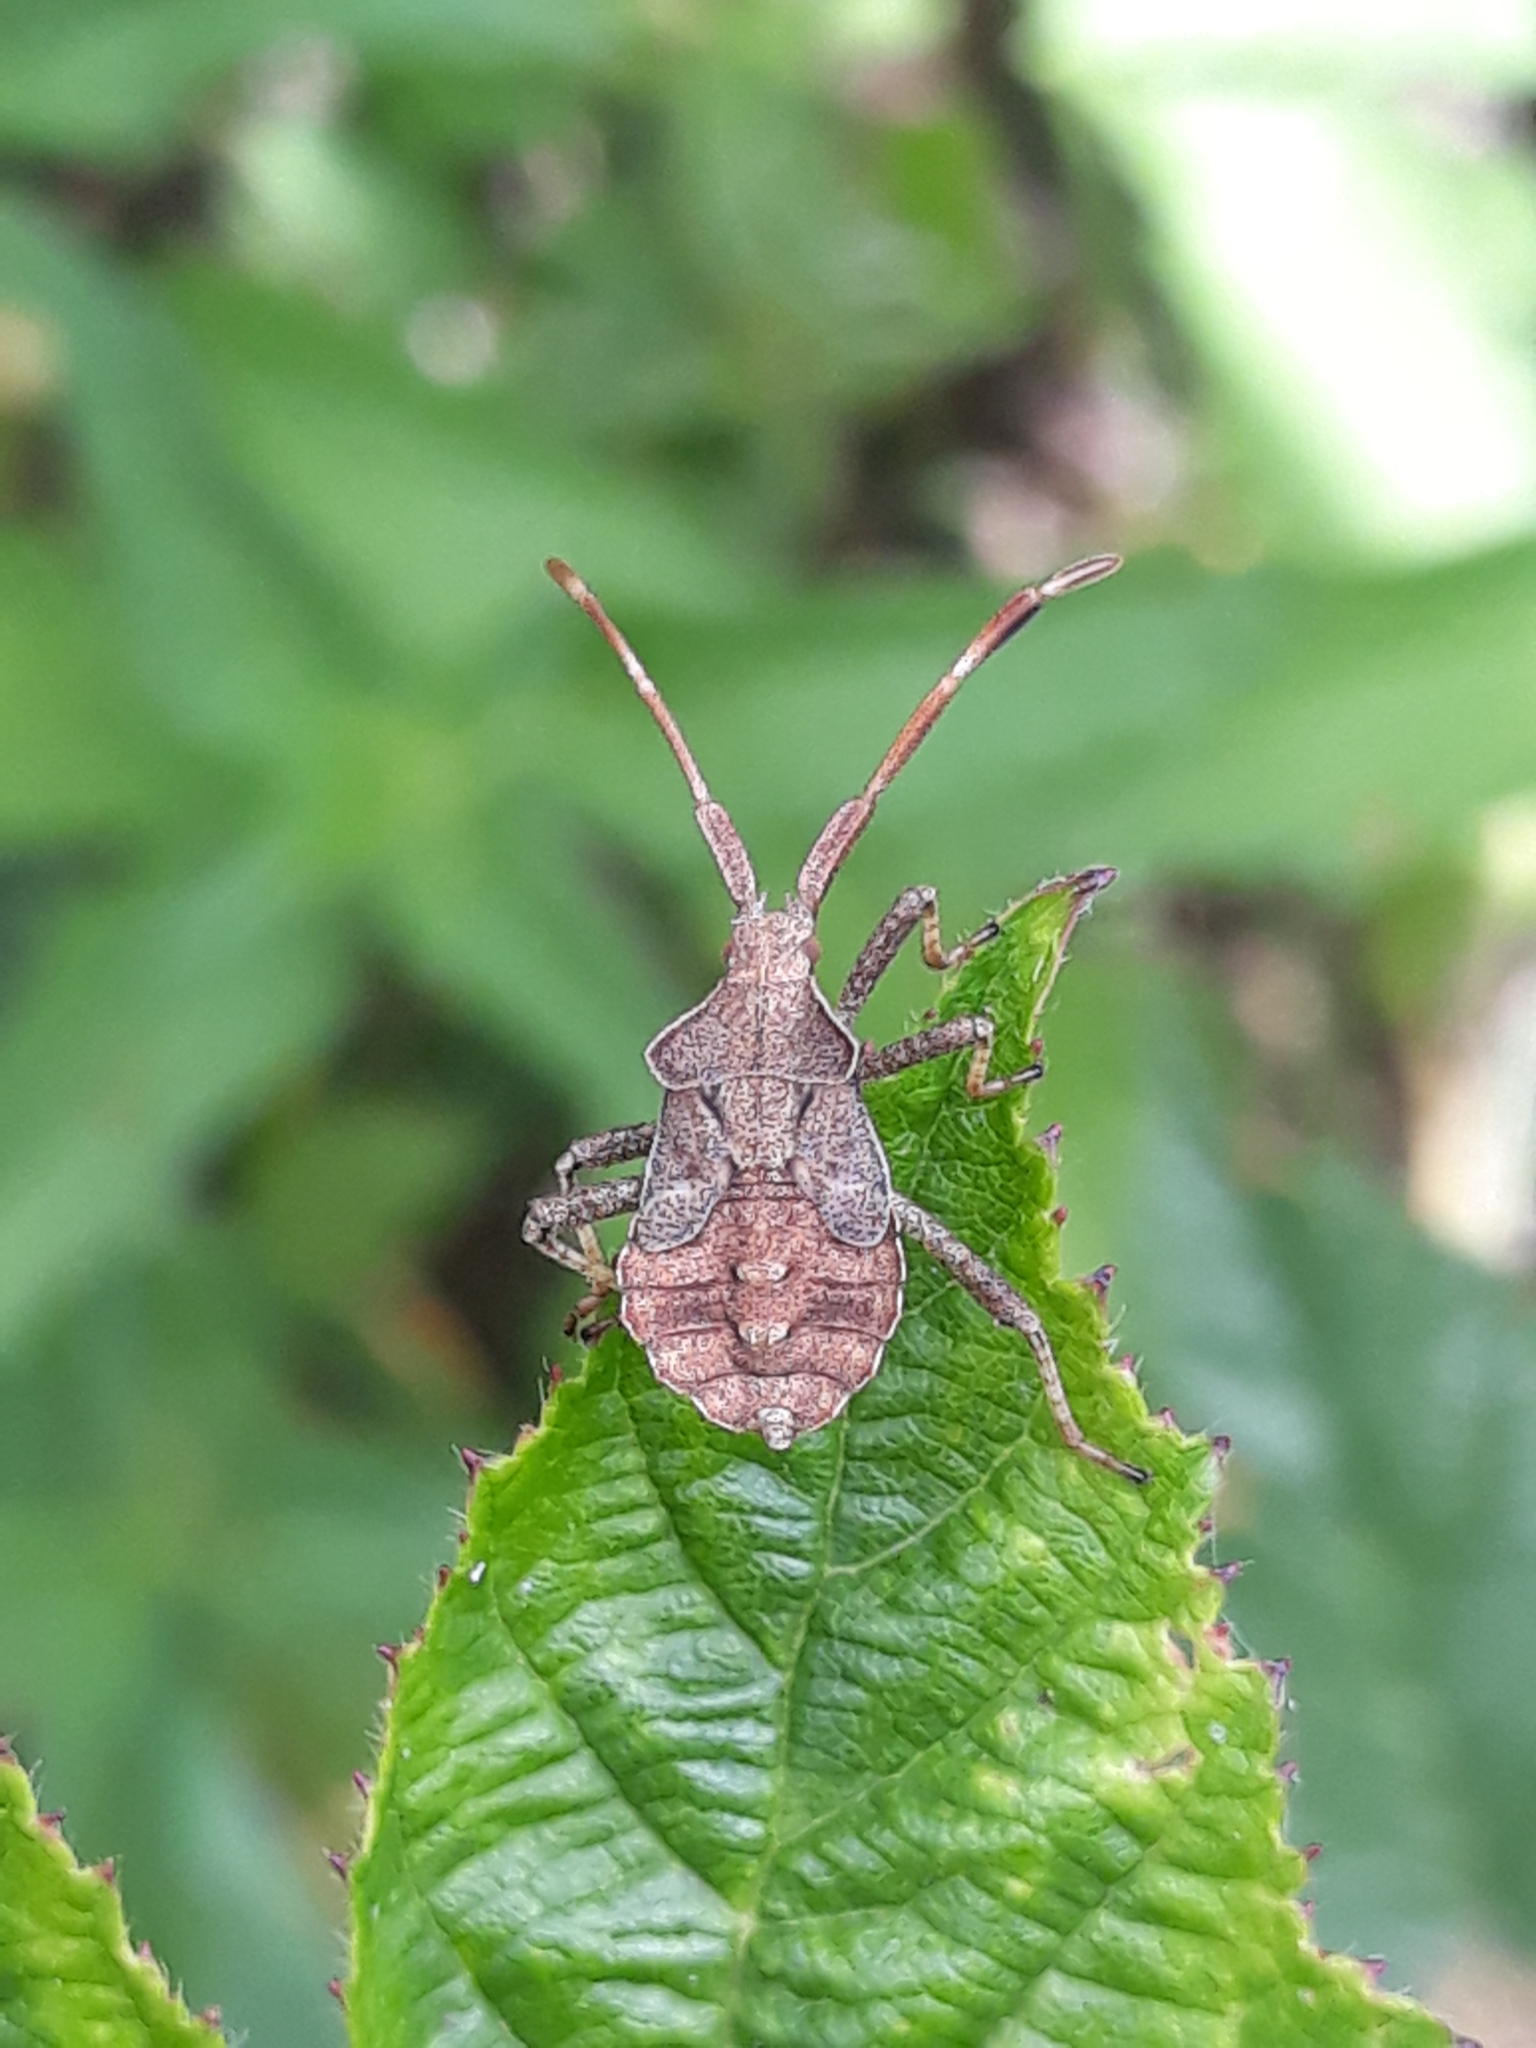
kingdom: Animalia
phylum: Arthropoda
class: Insecta
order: Hemiptera
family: Coreidae
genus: Coreus
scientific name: Coreus marginatus
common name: Dock bug
